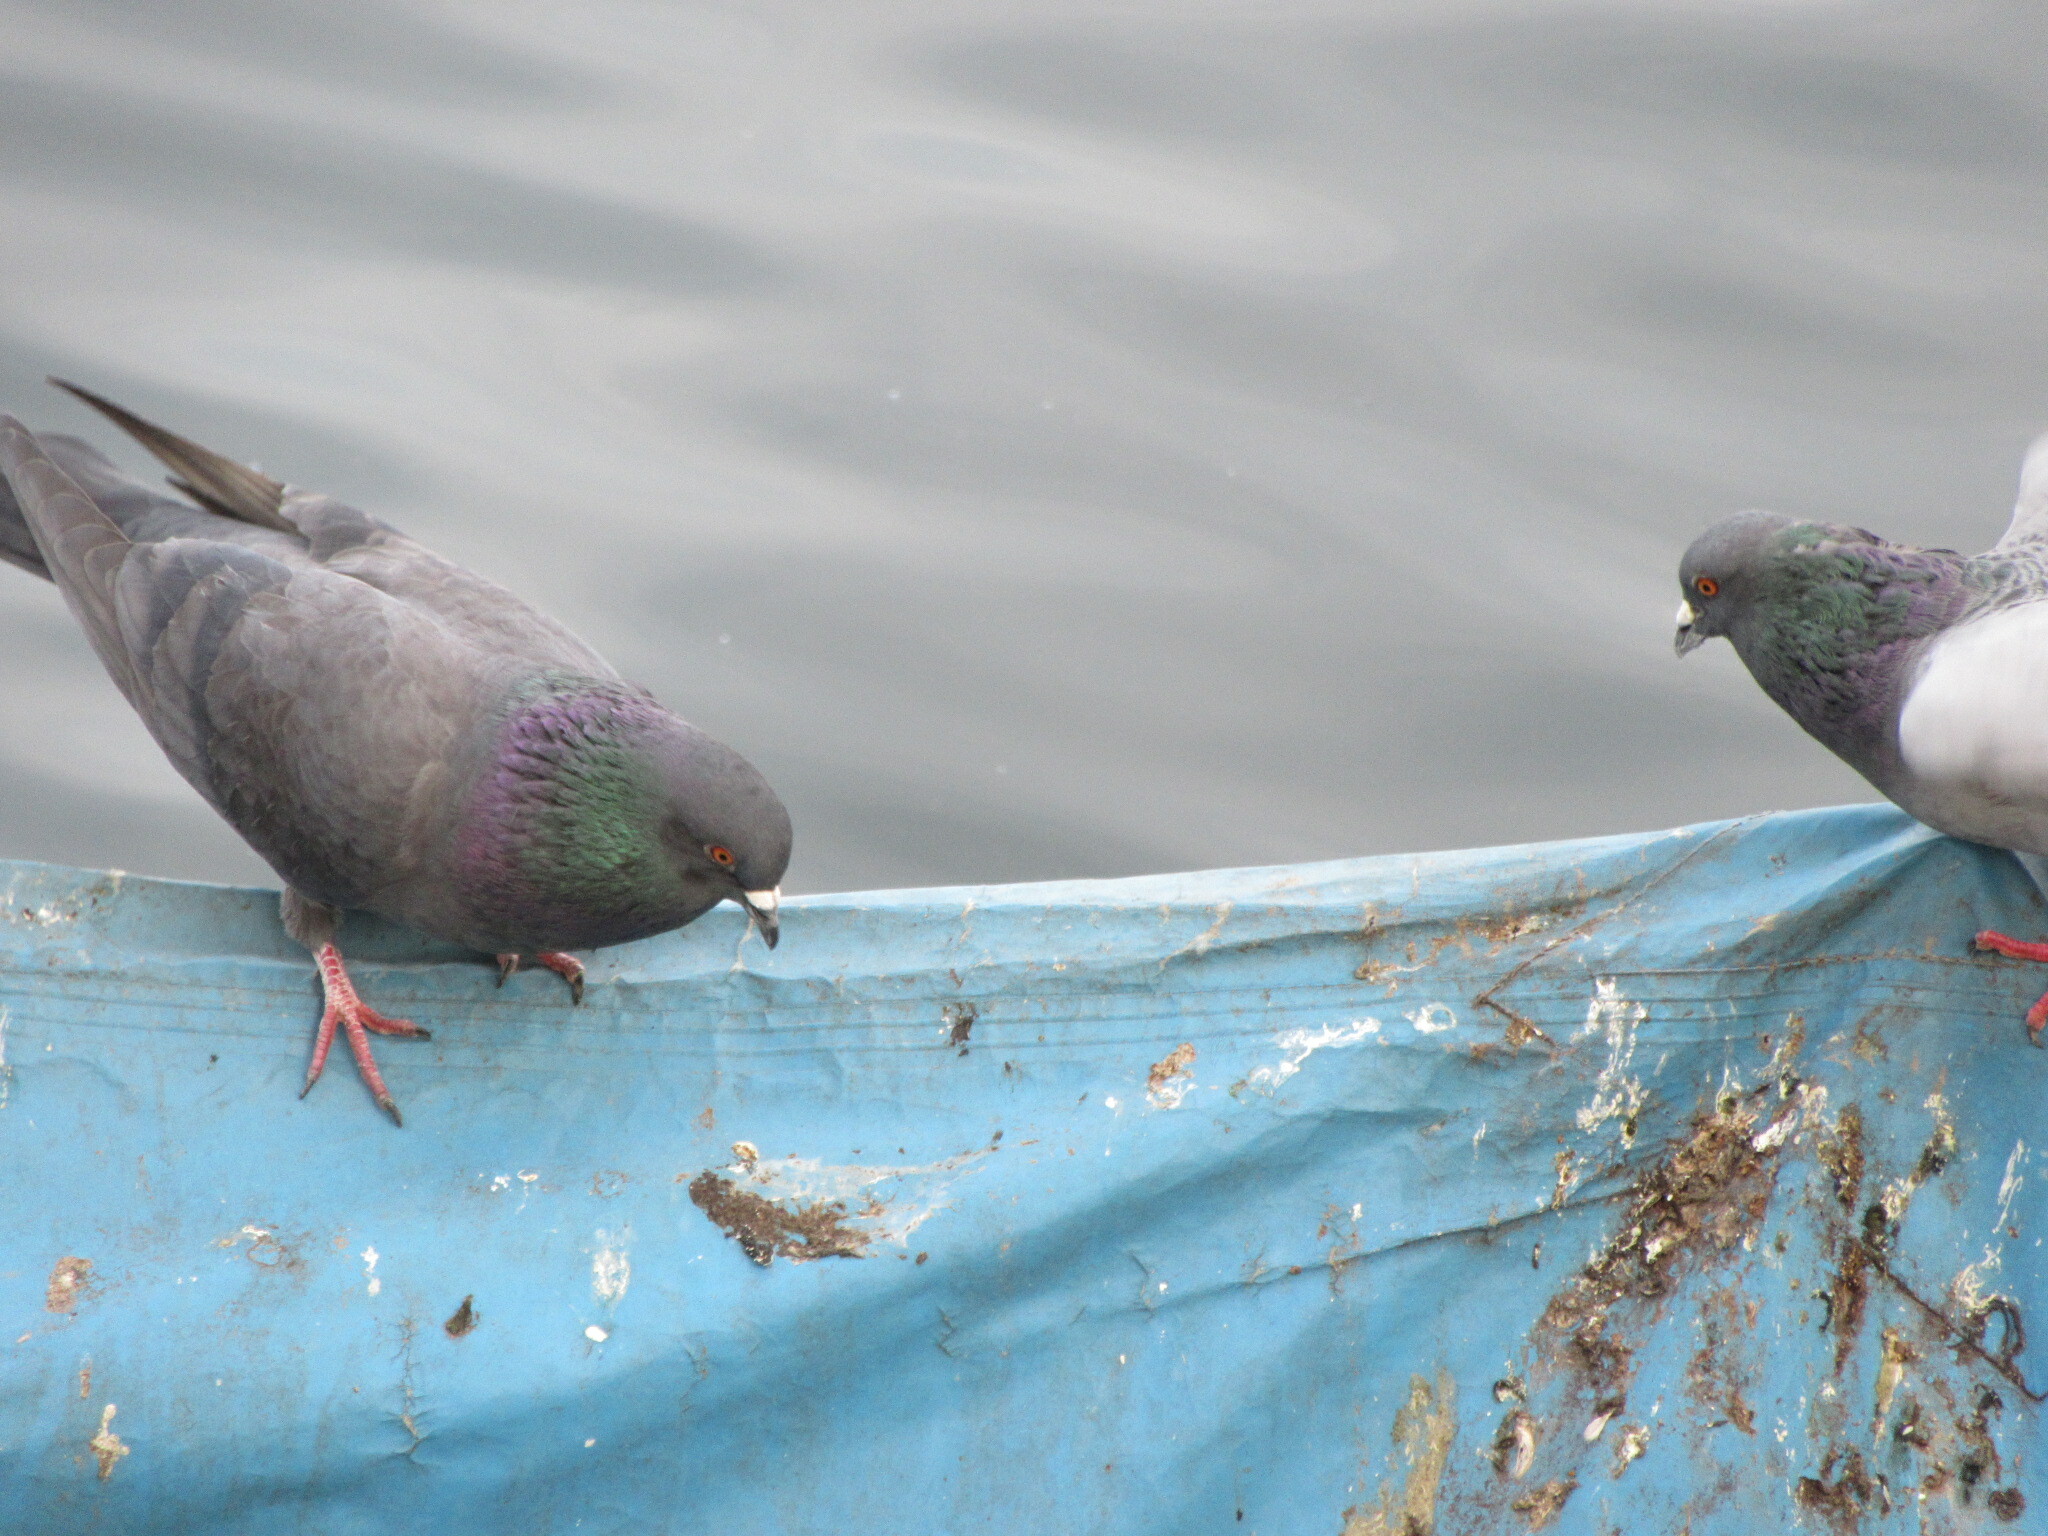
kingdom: Animalia
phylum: Chordata
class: Aves
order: Columbiformes
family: Columbidae
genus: Columba
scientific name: Columba livia
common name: Rock pigeon
